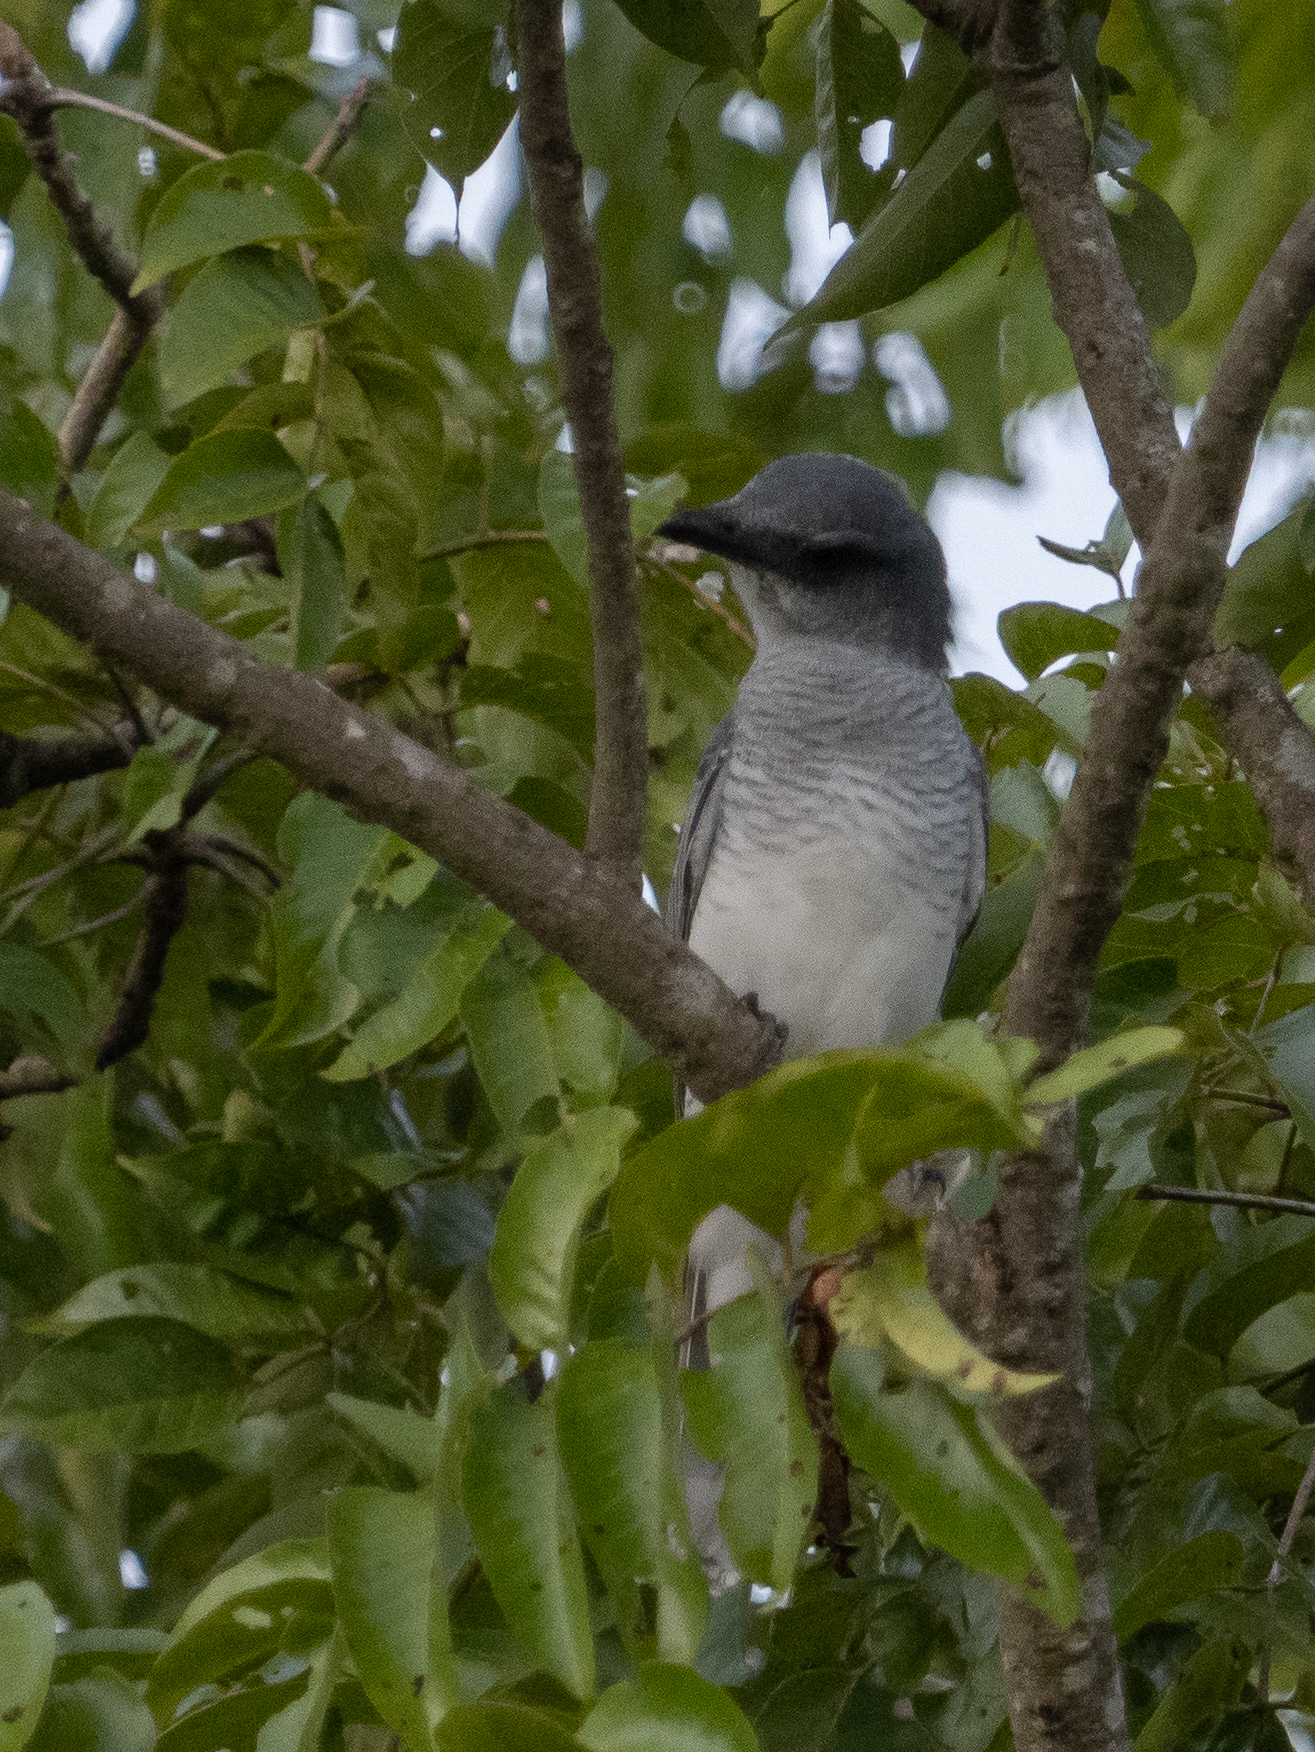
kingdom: Animalia
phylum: Chordata
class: Aves
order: Passeriformes
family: Campephagidae
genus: Coracina
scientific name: Coracina melanoptera
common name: Black-headed cuckooshrike
